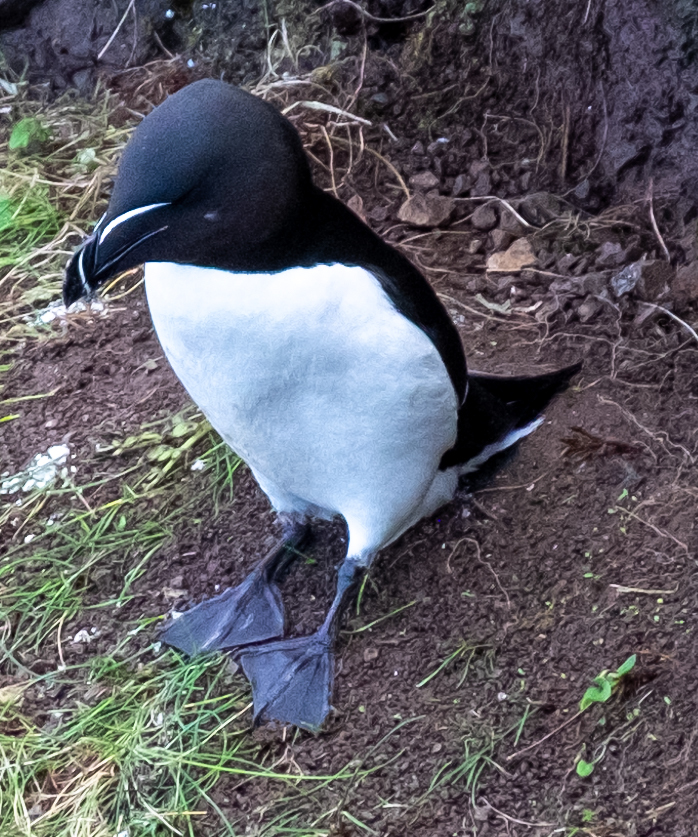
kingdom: Animalia
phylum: Chordata
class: Aves
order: Charadriiformes
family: Alcidae
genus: Alca
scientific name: Alca torda
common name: Razorbill
